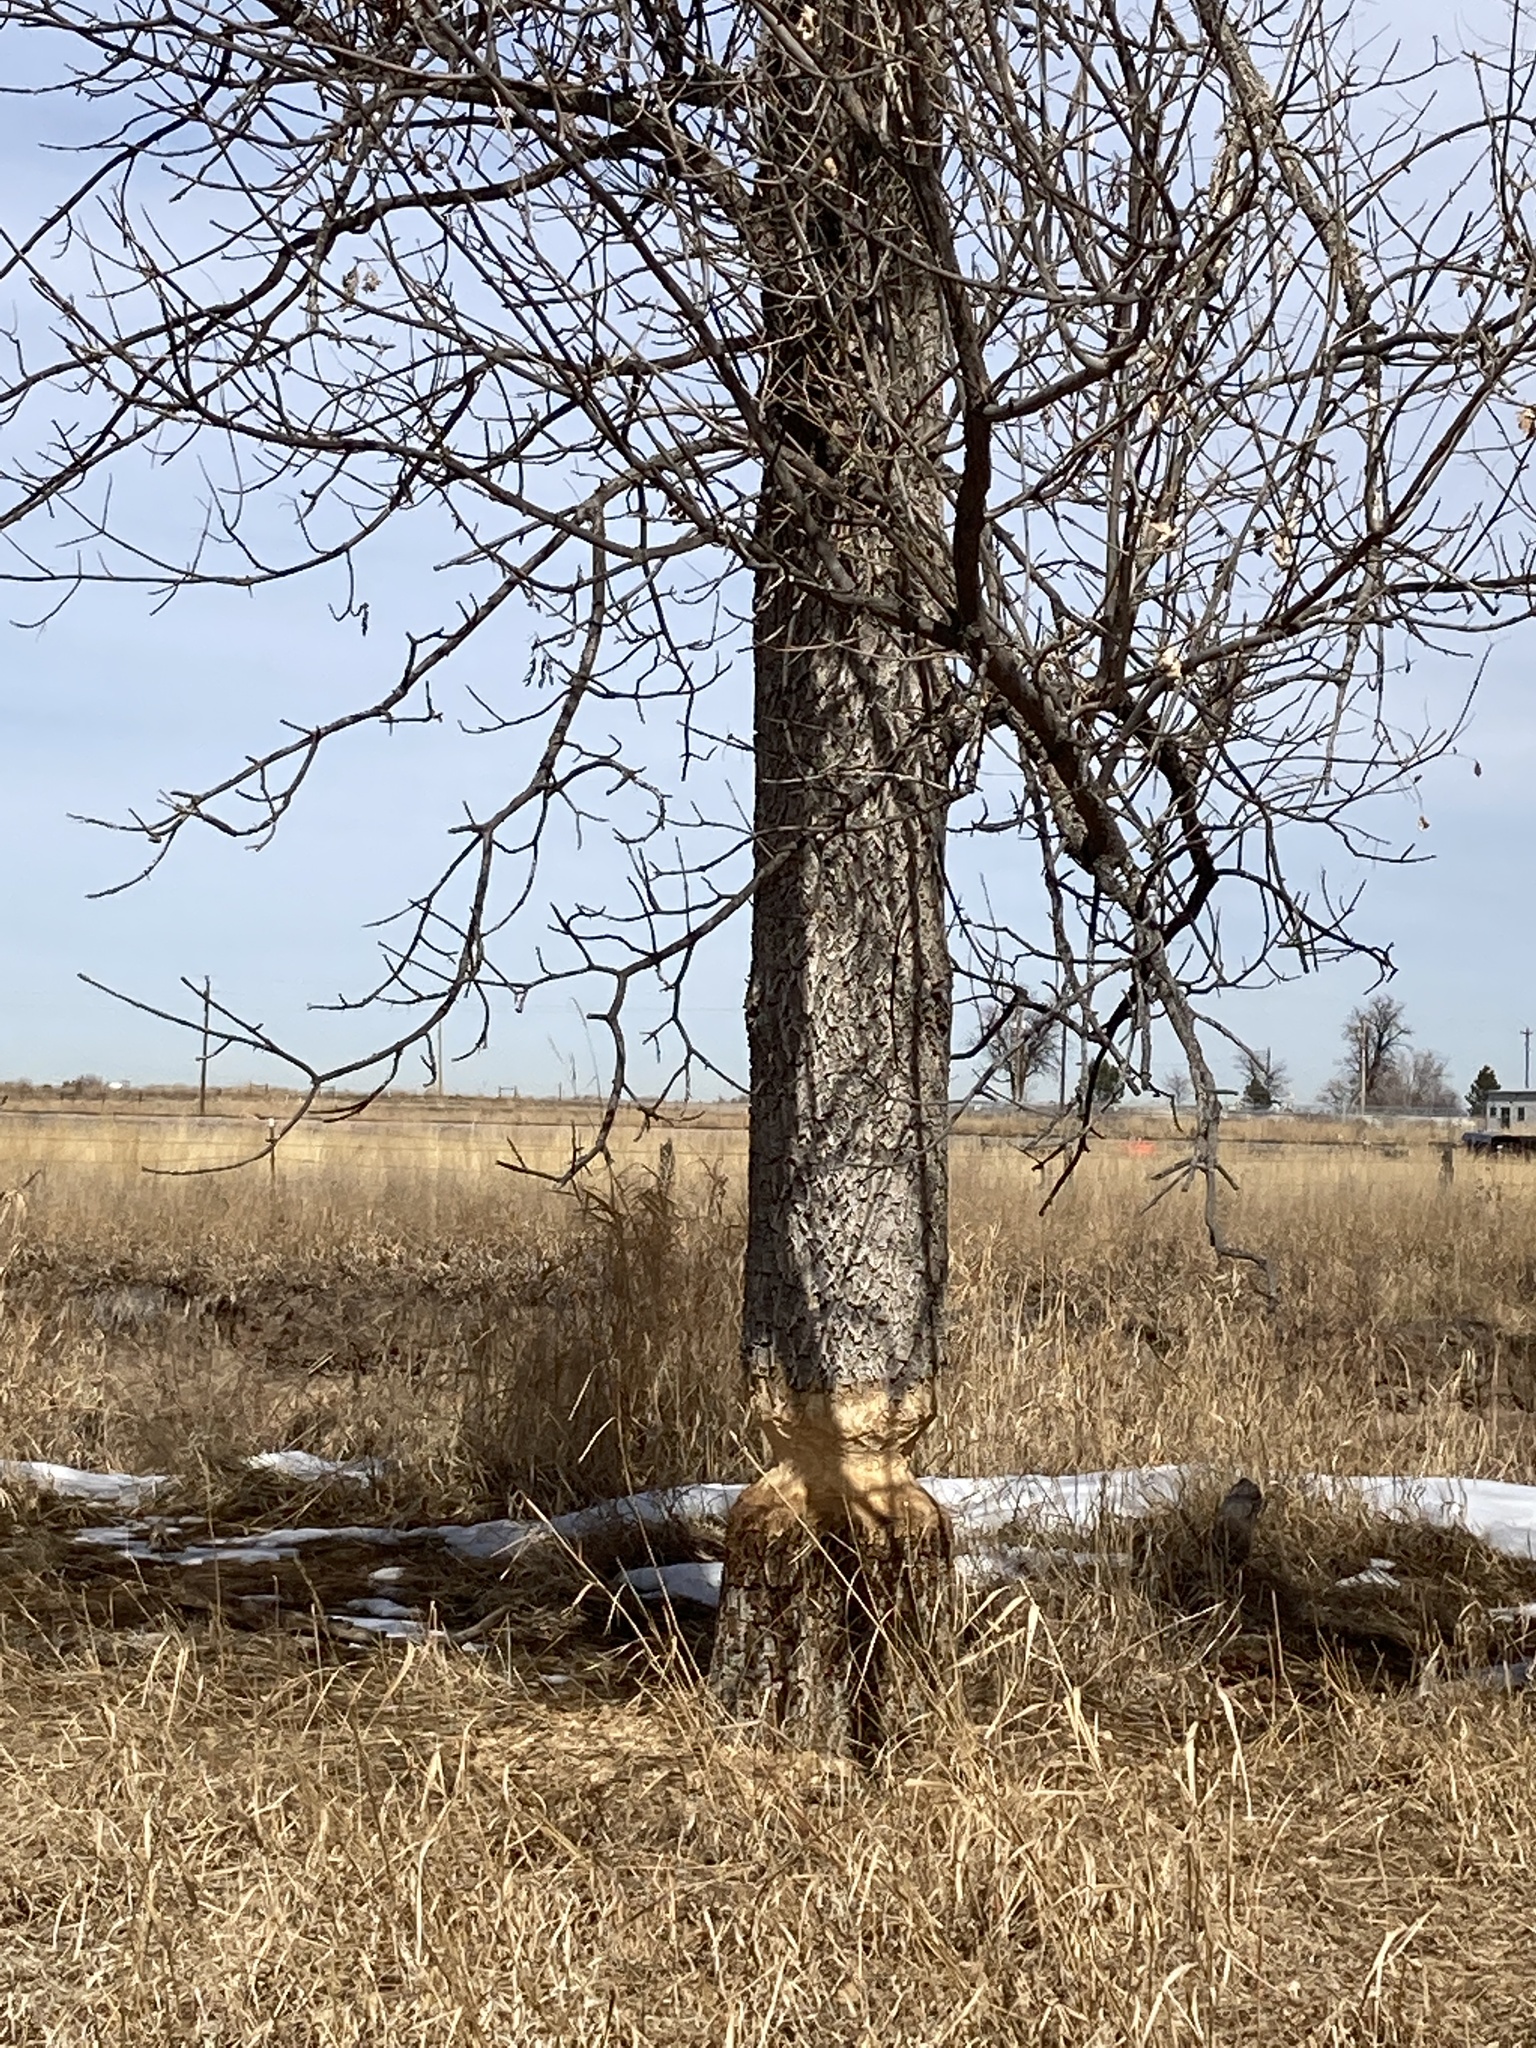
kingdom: Animalia
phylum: Chordata
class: Mammalia
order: Rodentia
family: Castoridae
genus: Castor
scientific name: Castor canadensis
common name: American beaver
